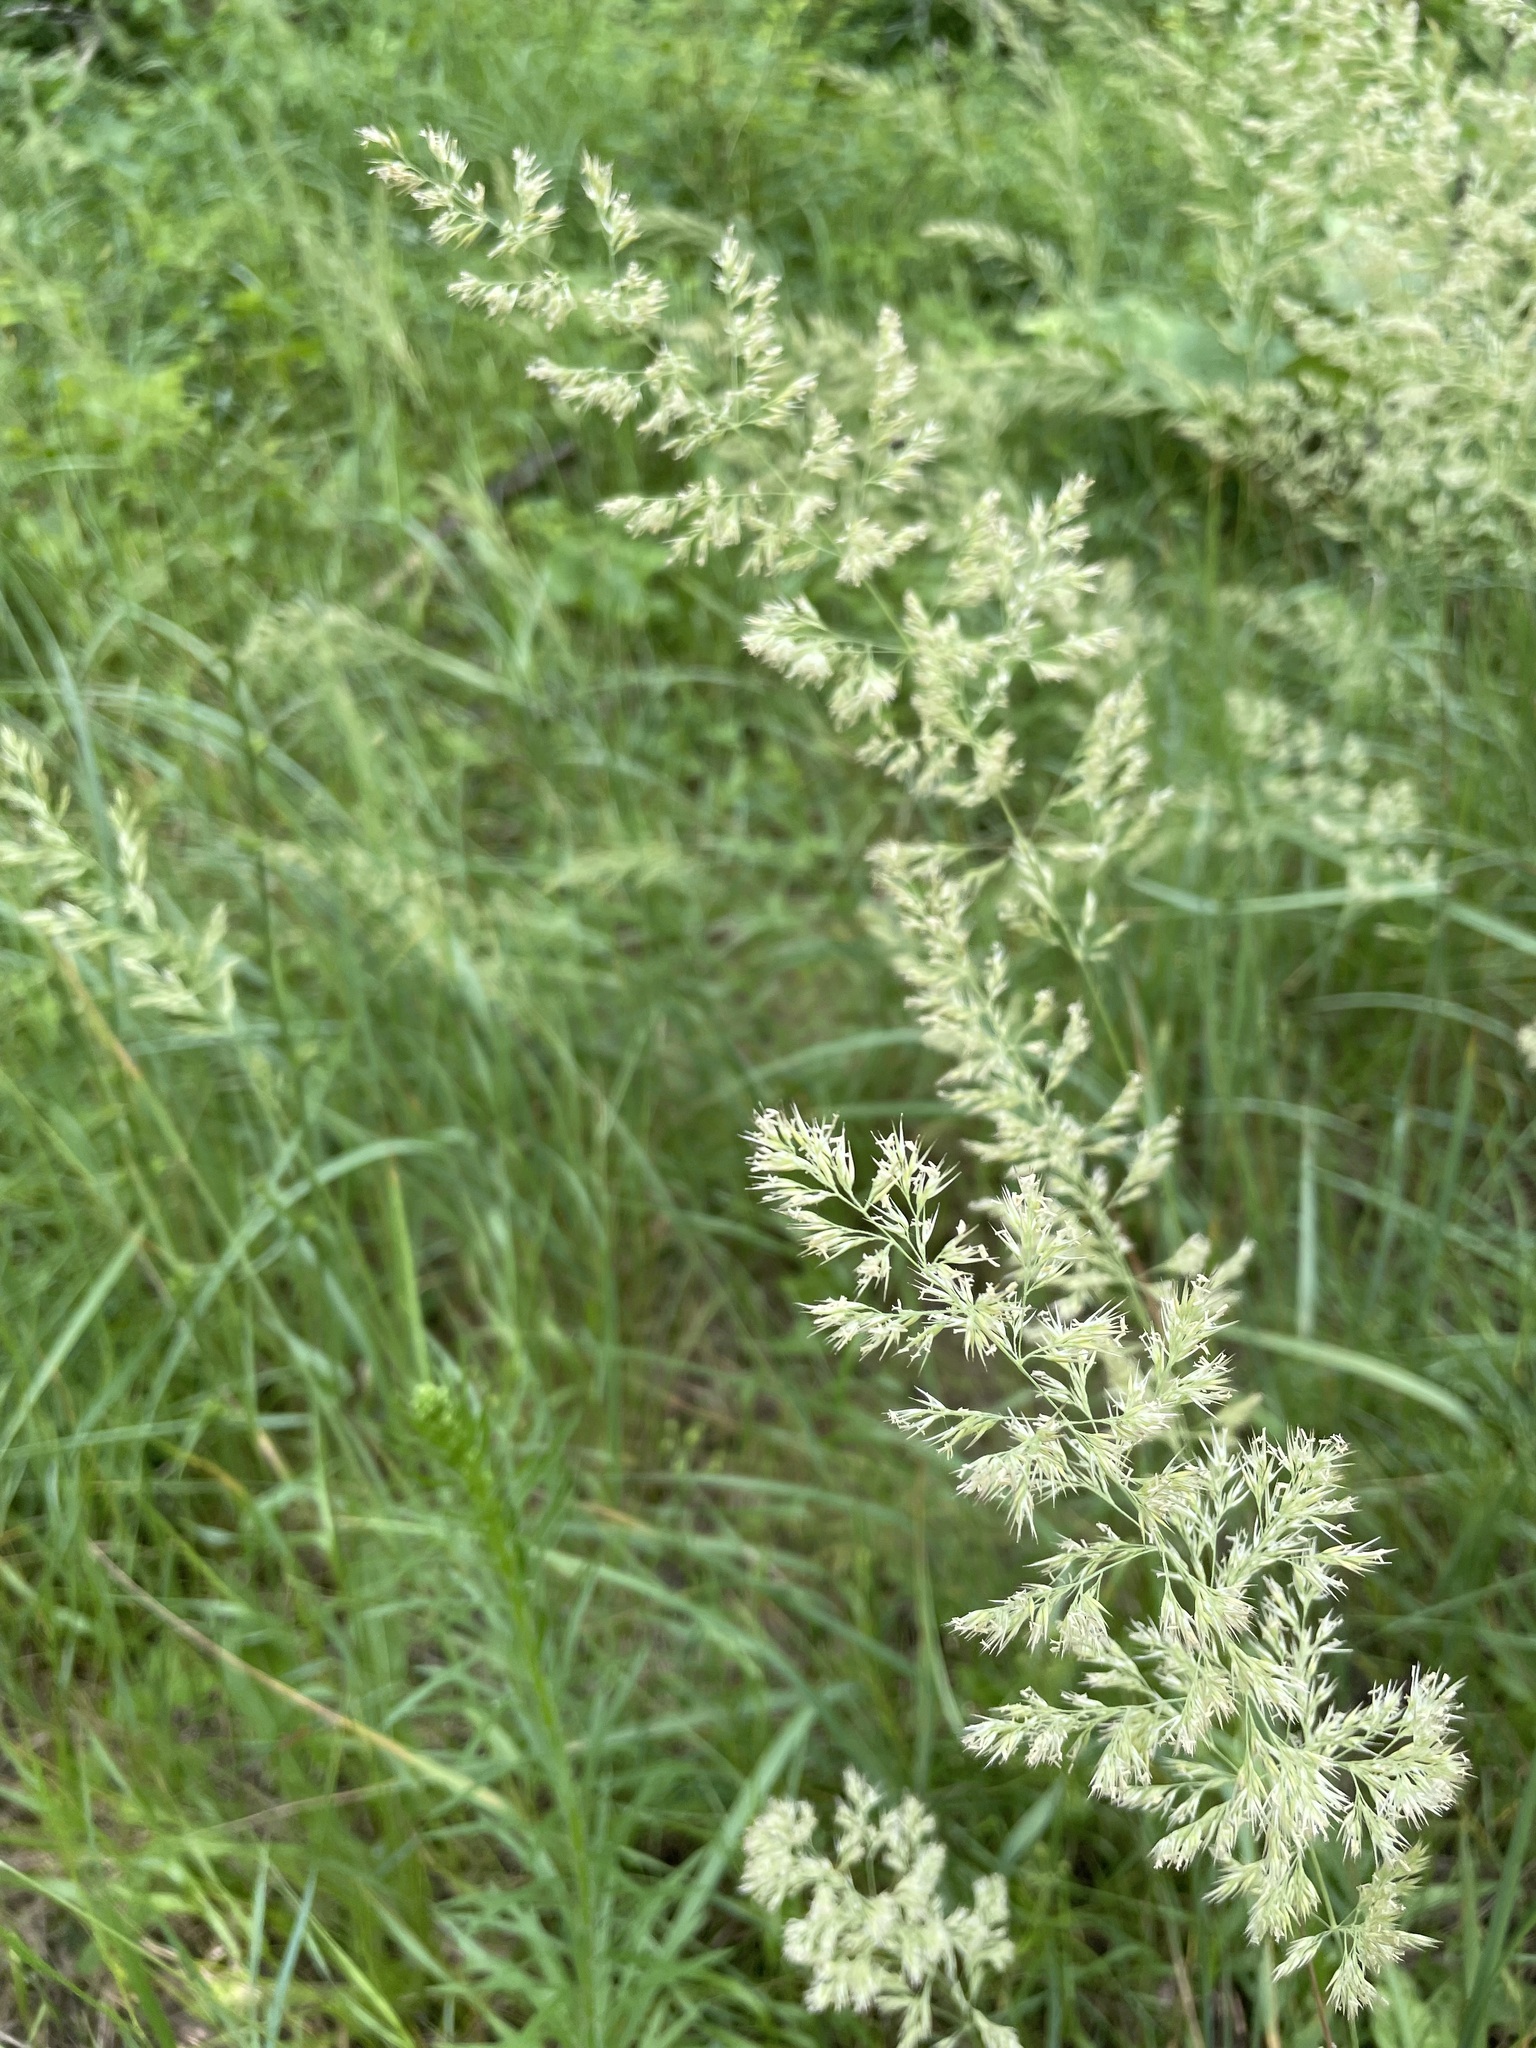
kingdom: Plantae
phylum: Tracheophyta
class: Liliopsida
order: Poales
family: Poaceae
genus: Calamagrostis
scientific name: Calamagrostis epigejos
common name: Wood small-reed
